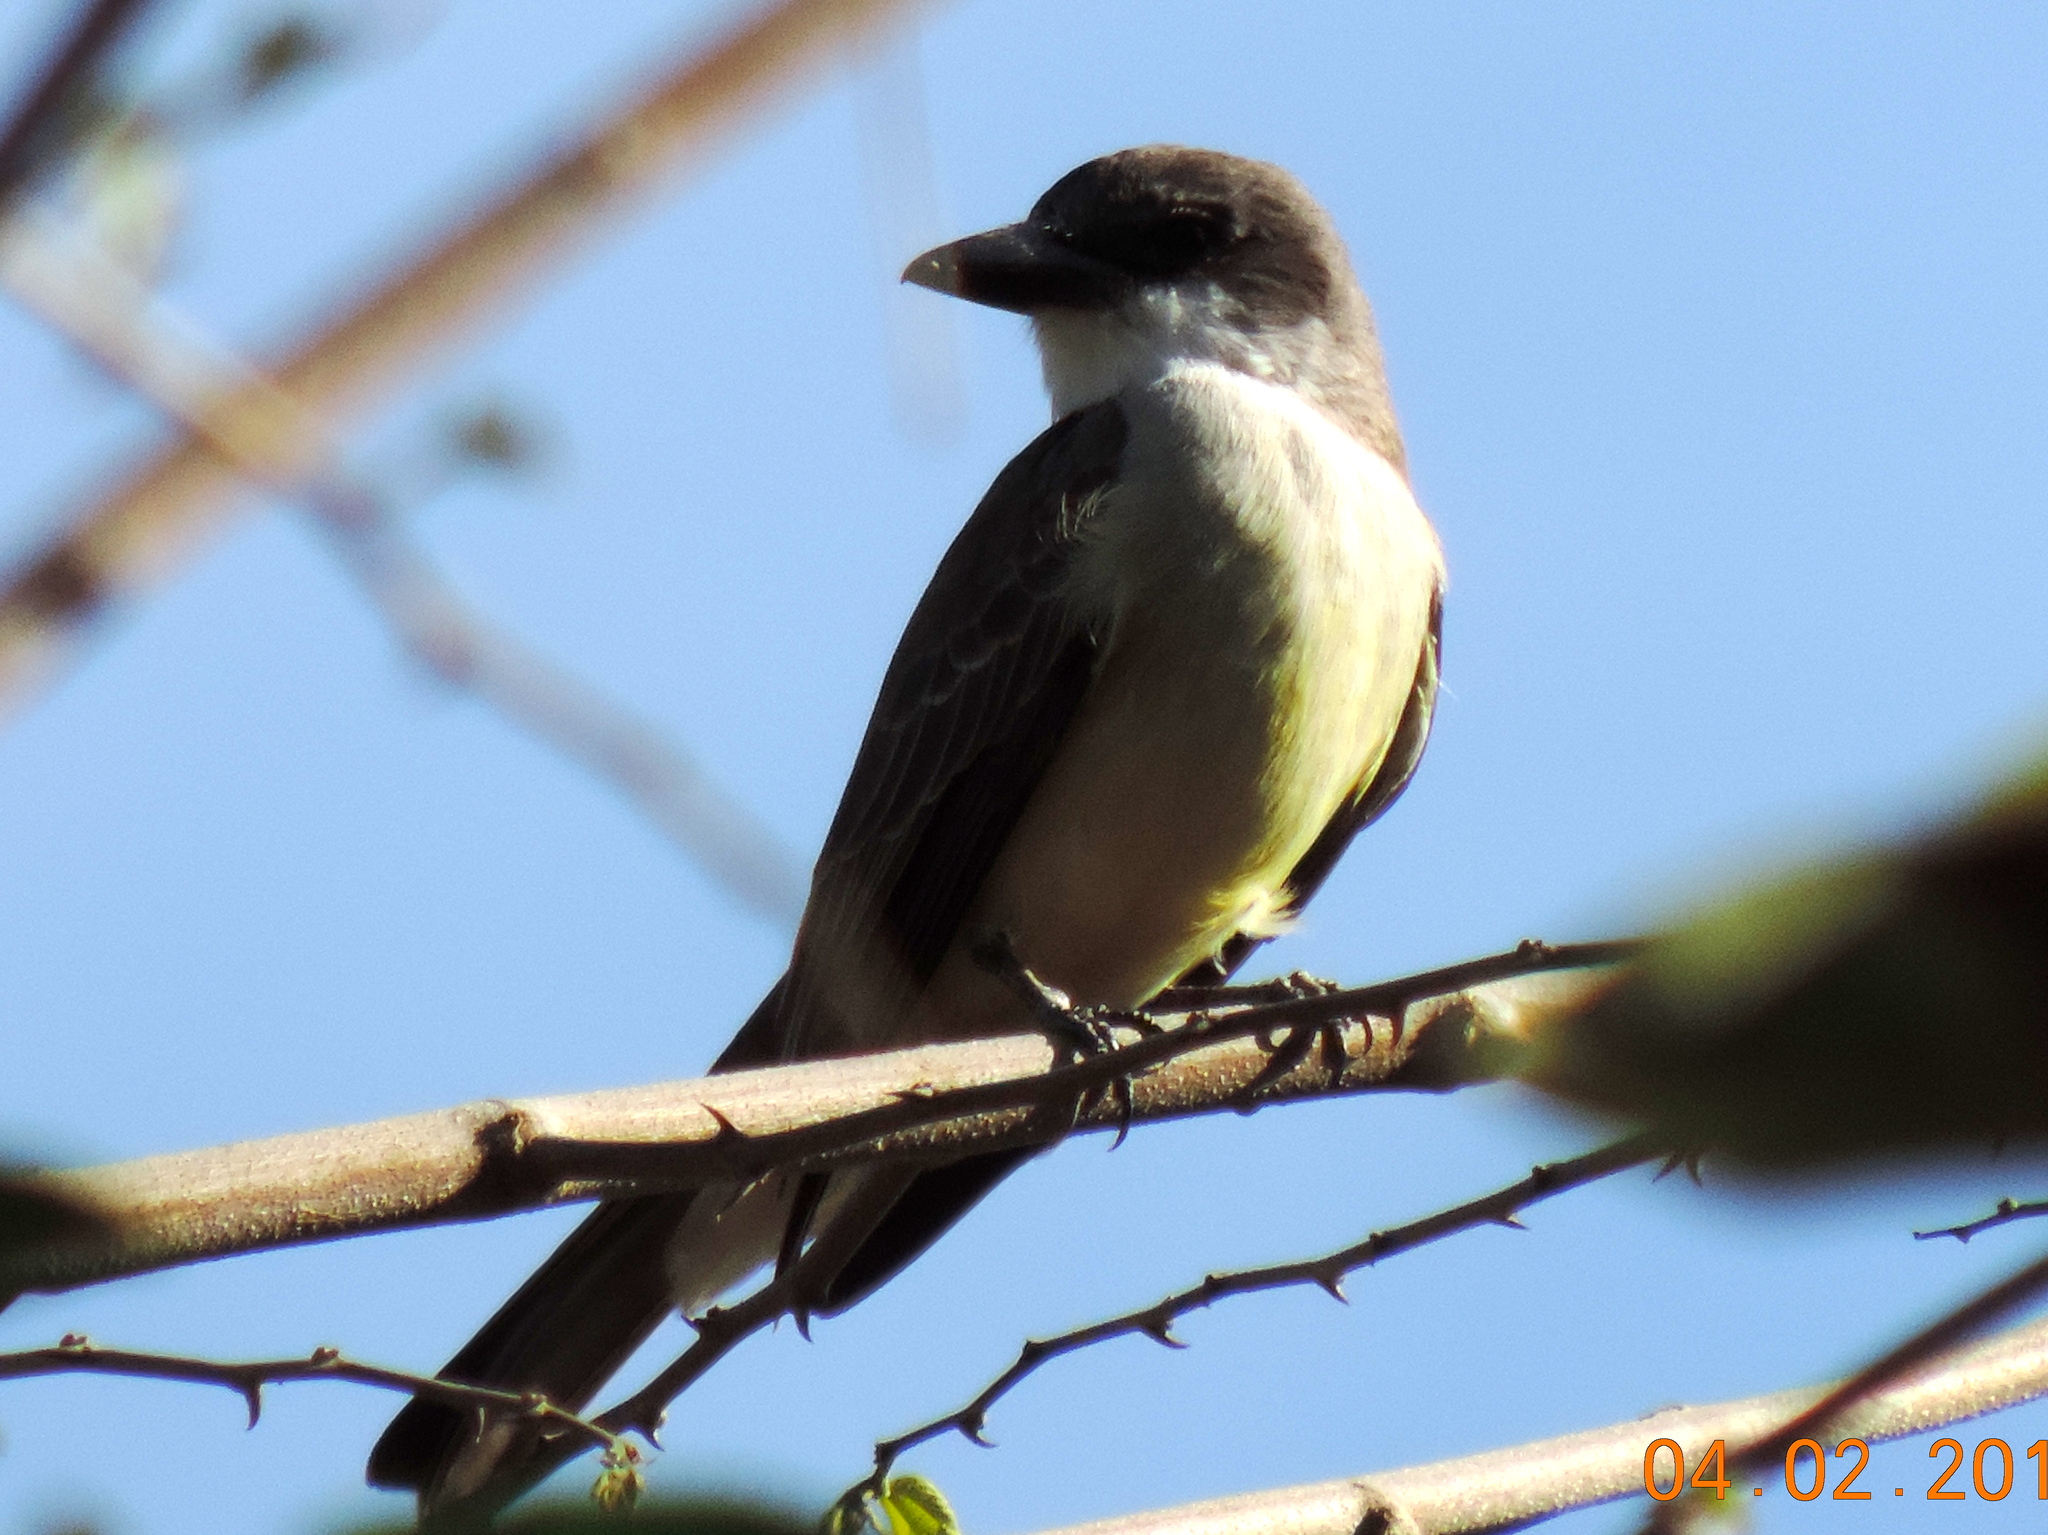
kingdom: Animalia
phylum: Chordata
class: Aves
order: Passeriformes
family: Tyrannidae
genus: Tyrannus
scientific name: Tyrannus crassirostris
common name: Thick-billed kingbird
